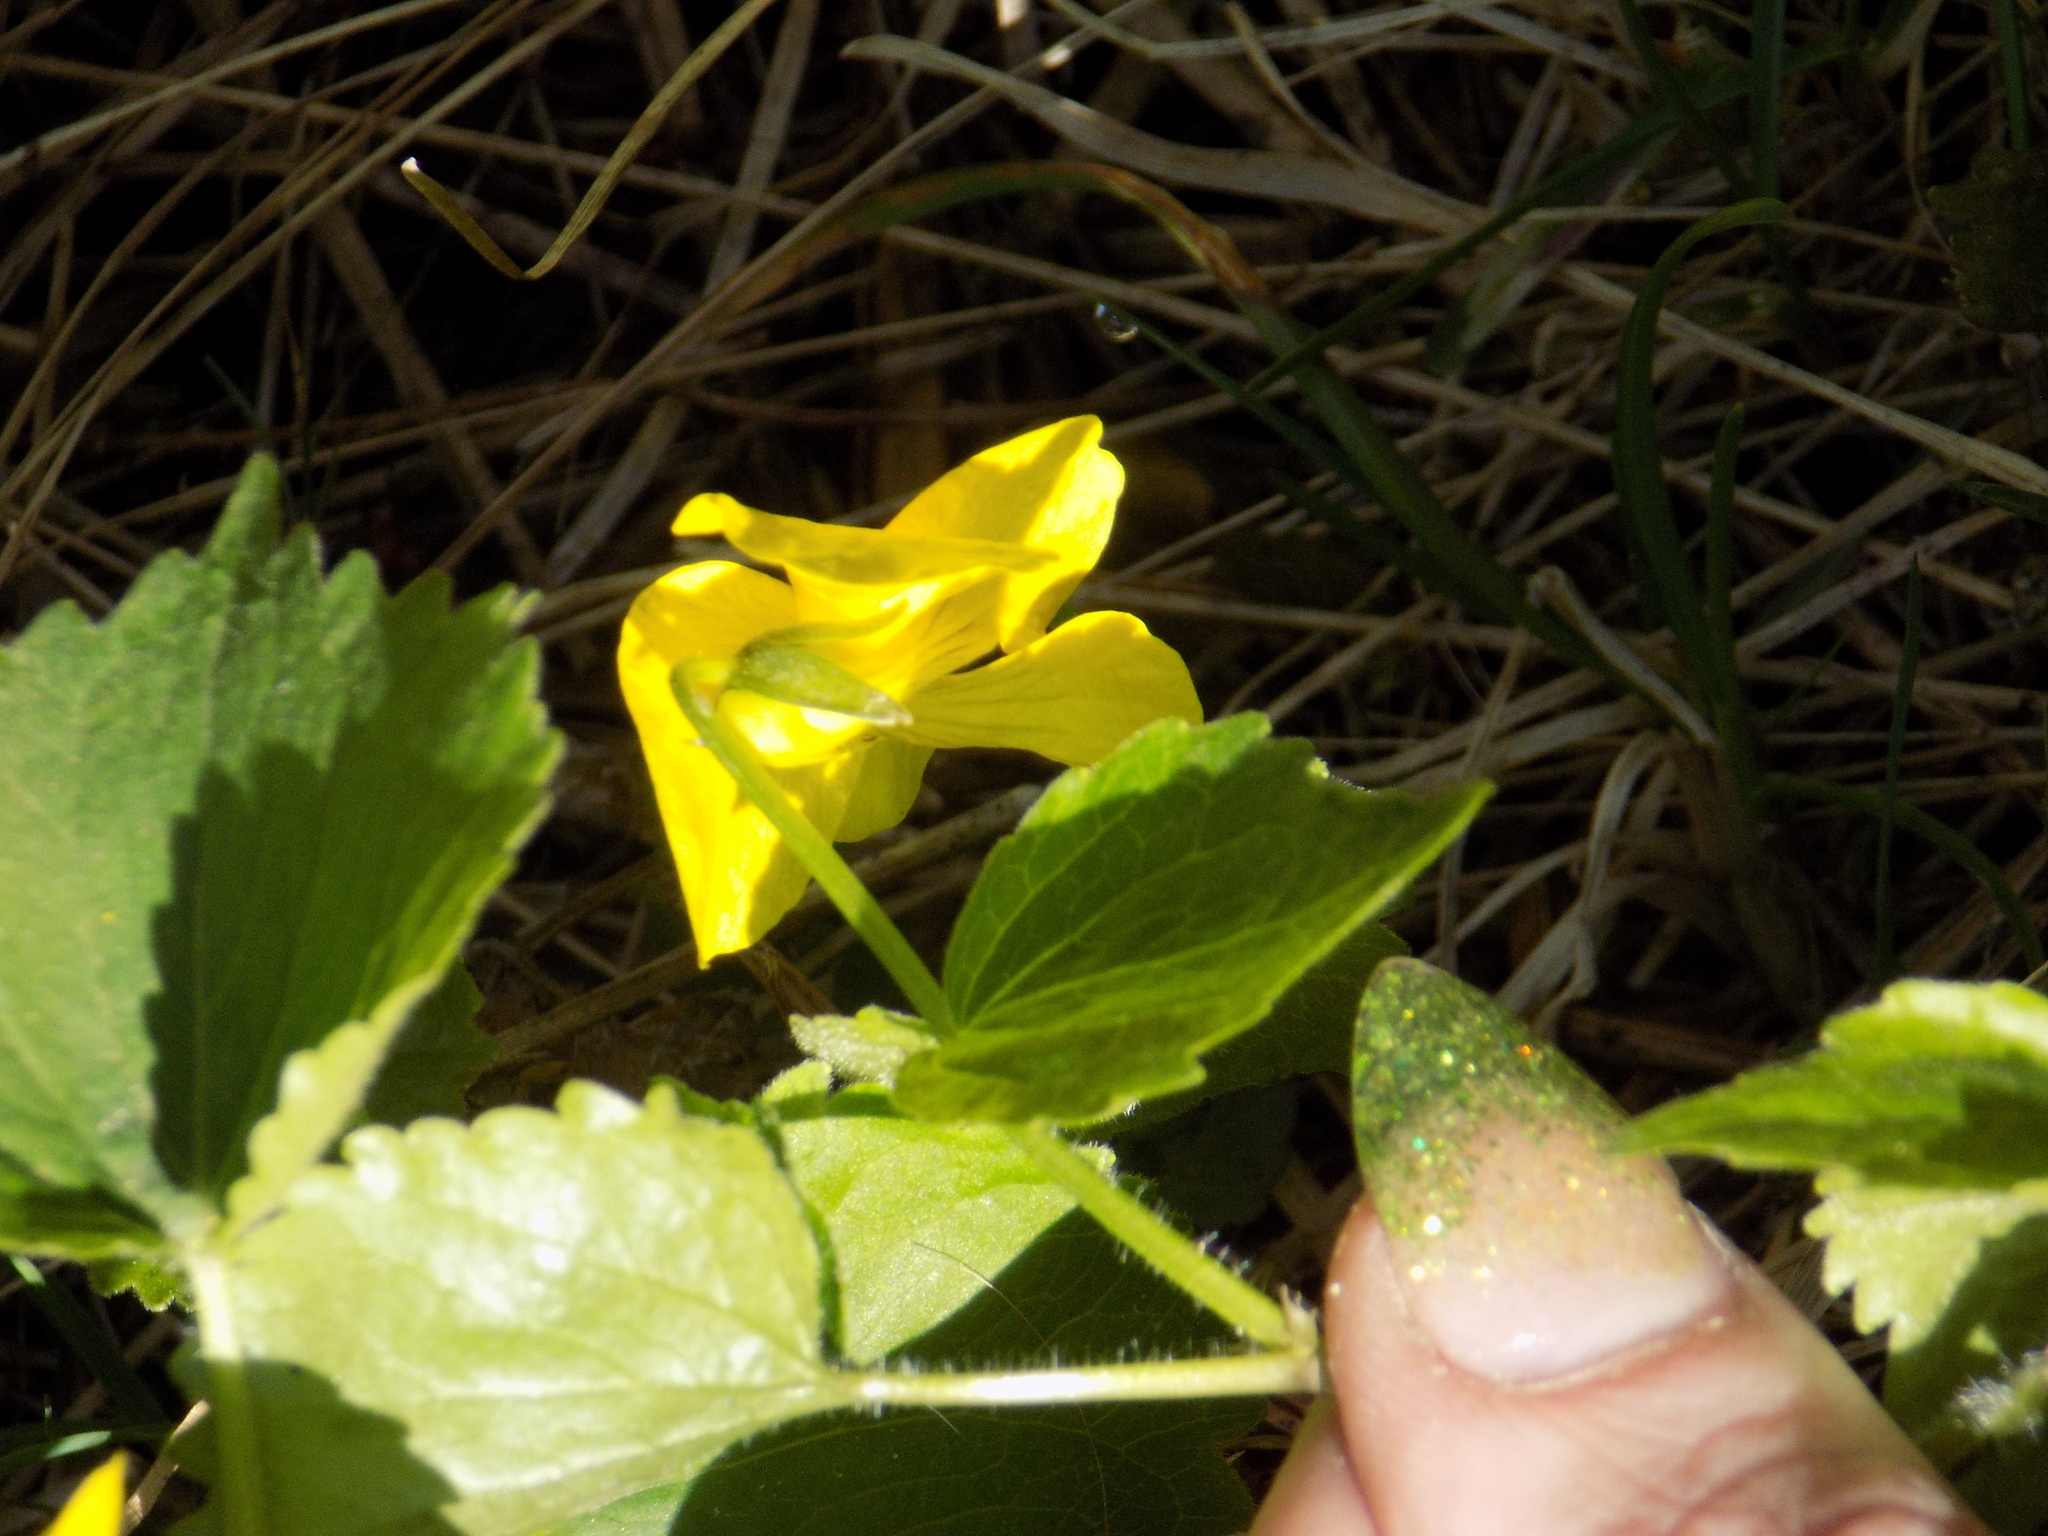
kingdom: Plantae
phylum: Tracheophyta
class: Magnoliopsida
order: Malpighiales
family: Violaceae
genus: Viola
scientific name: Viola uniflora
